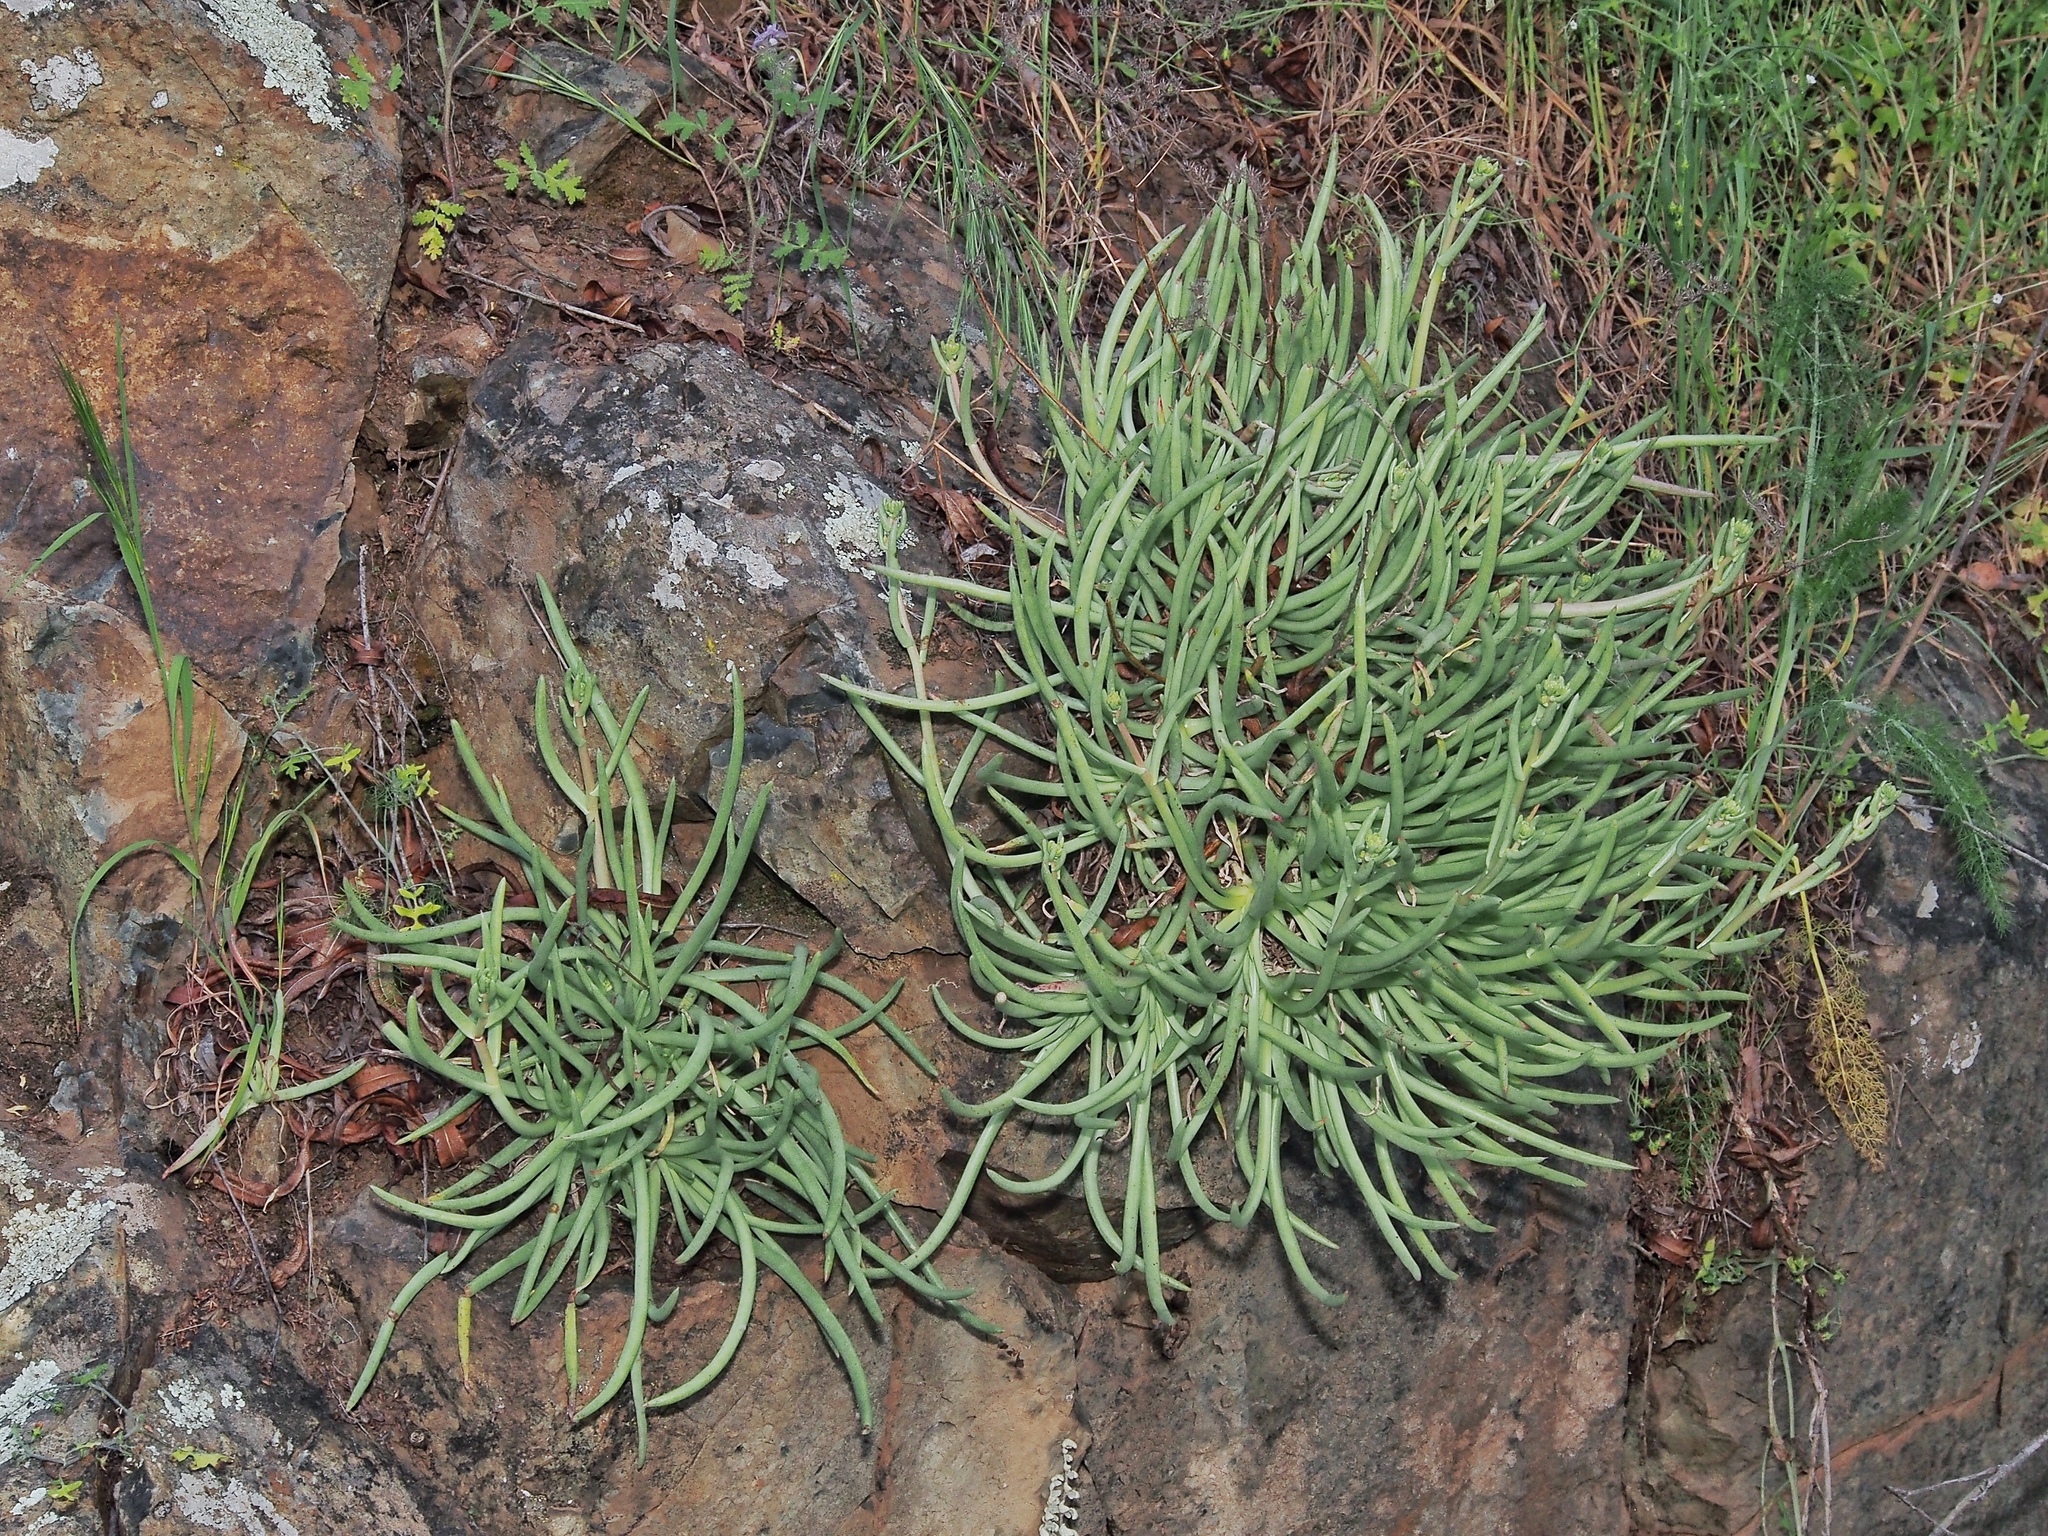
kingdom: Plantae
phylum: Tracheophyta
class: Magnoliopsida
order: Saxifragales
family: Crassulaceae
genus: Dudleya
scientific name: Dudleya edulis
